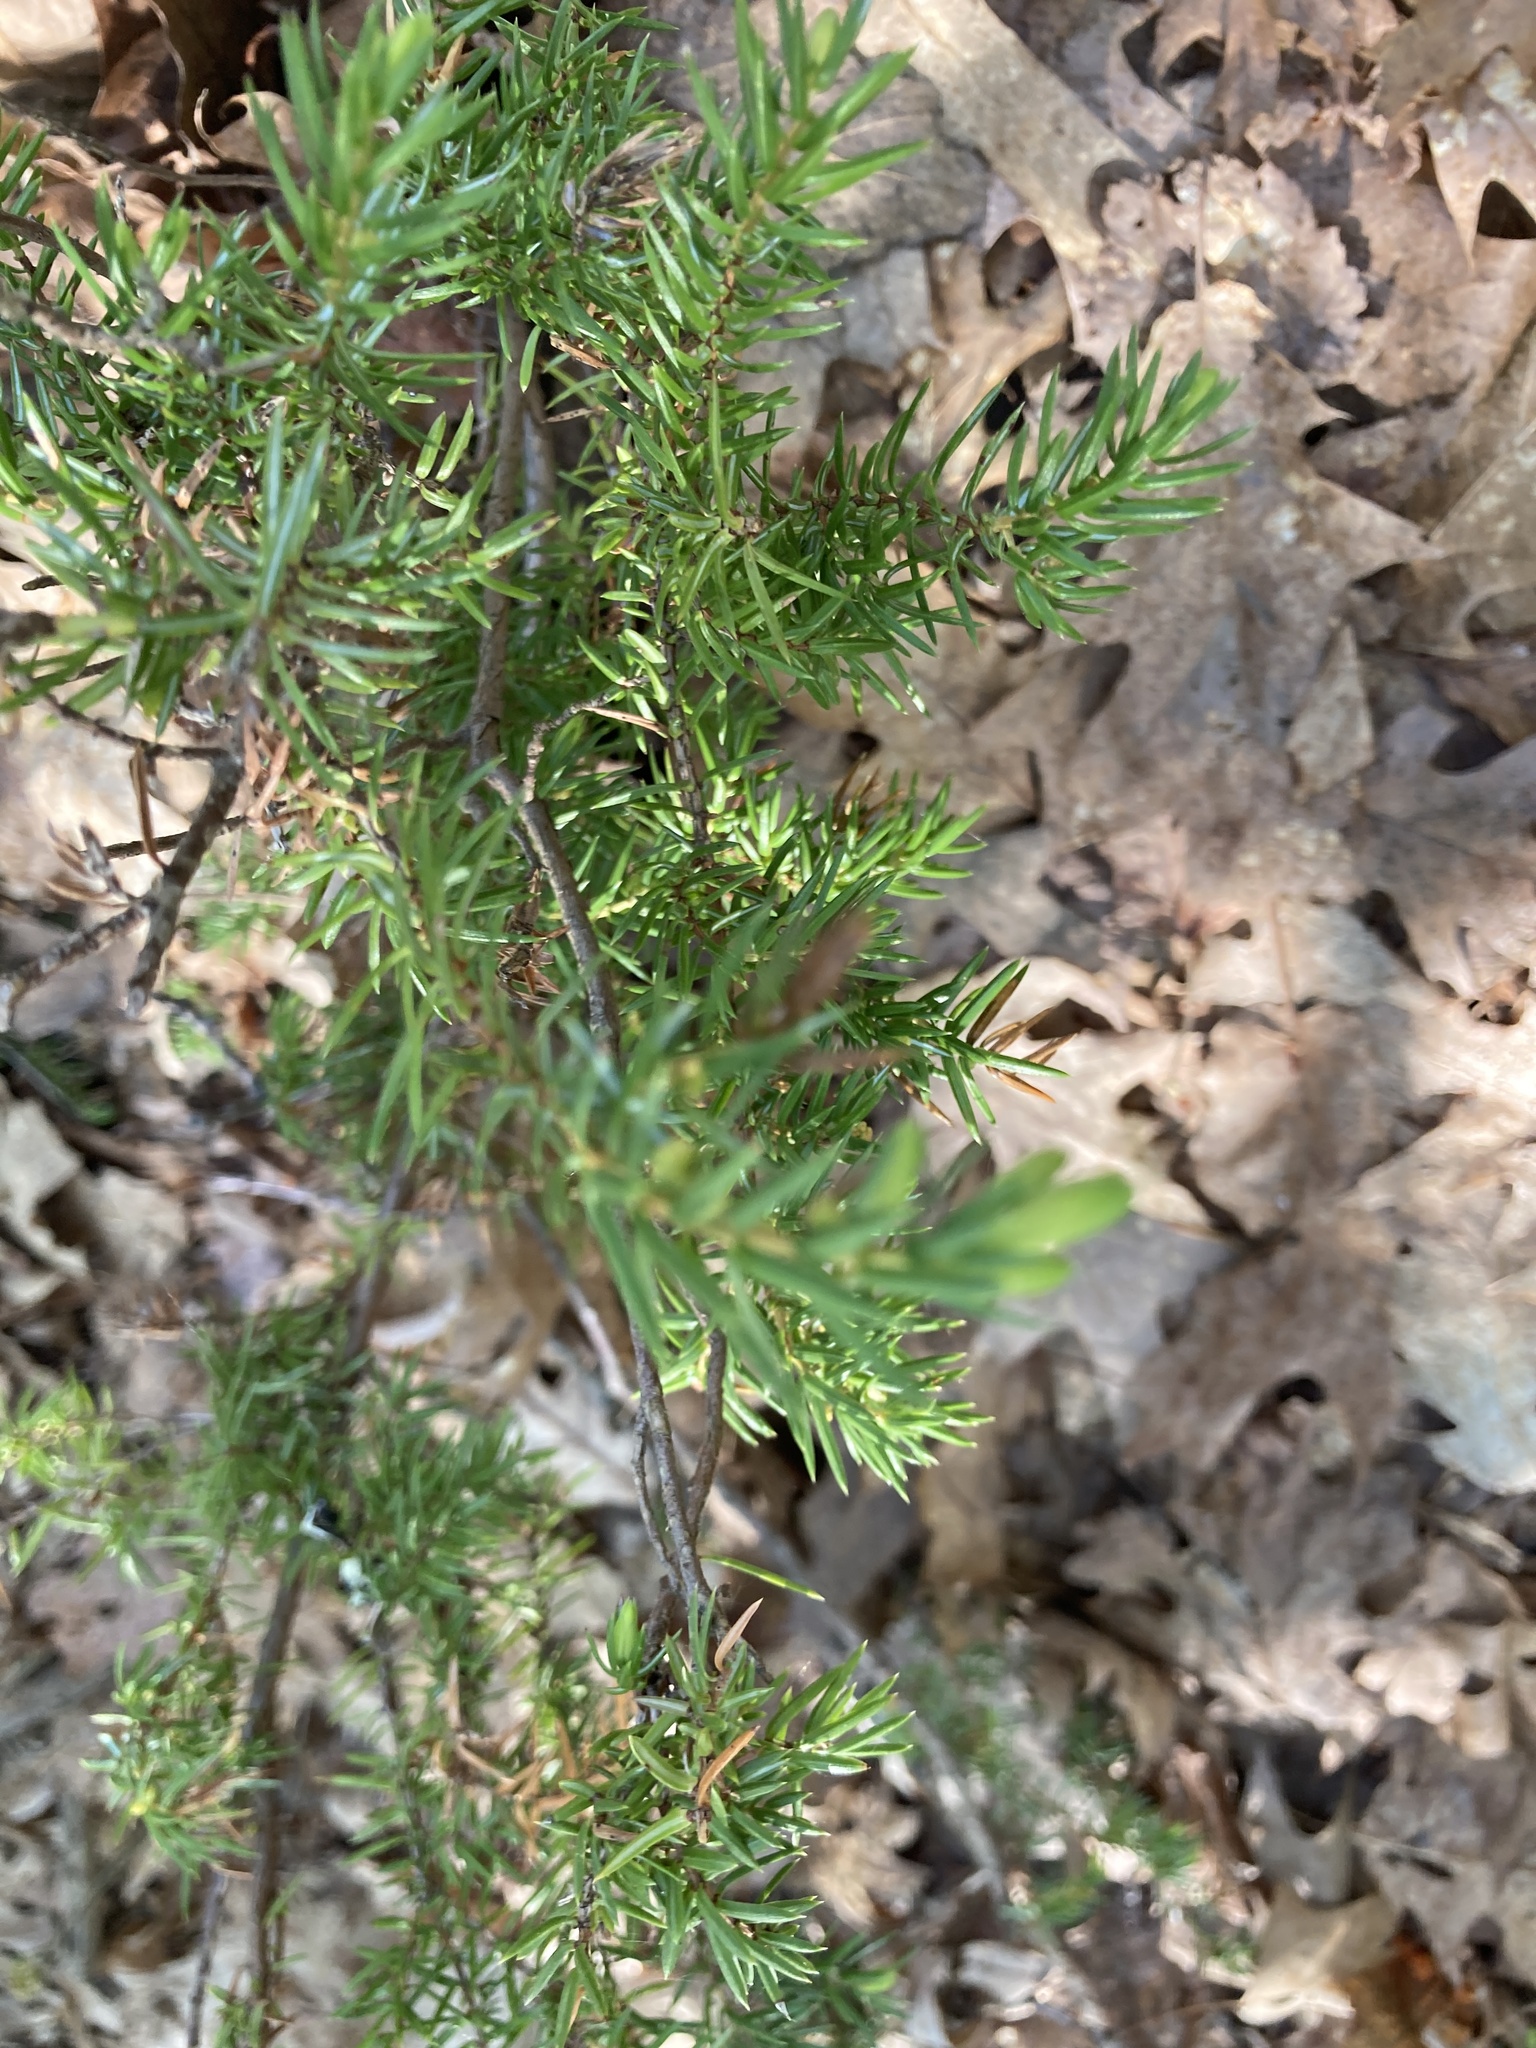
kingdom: Plantae
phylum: Tracheophyta
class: Pinopsida
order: Pinales
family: Cupressaceae
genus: Juniperus
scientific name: Juniperus communis
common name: Common juniper
